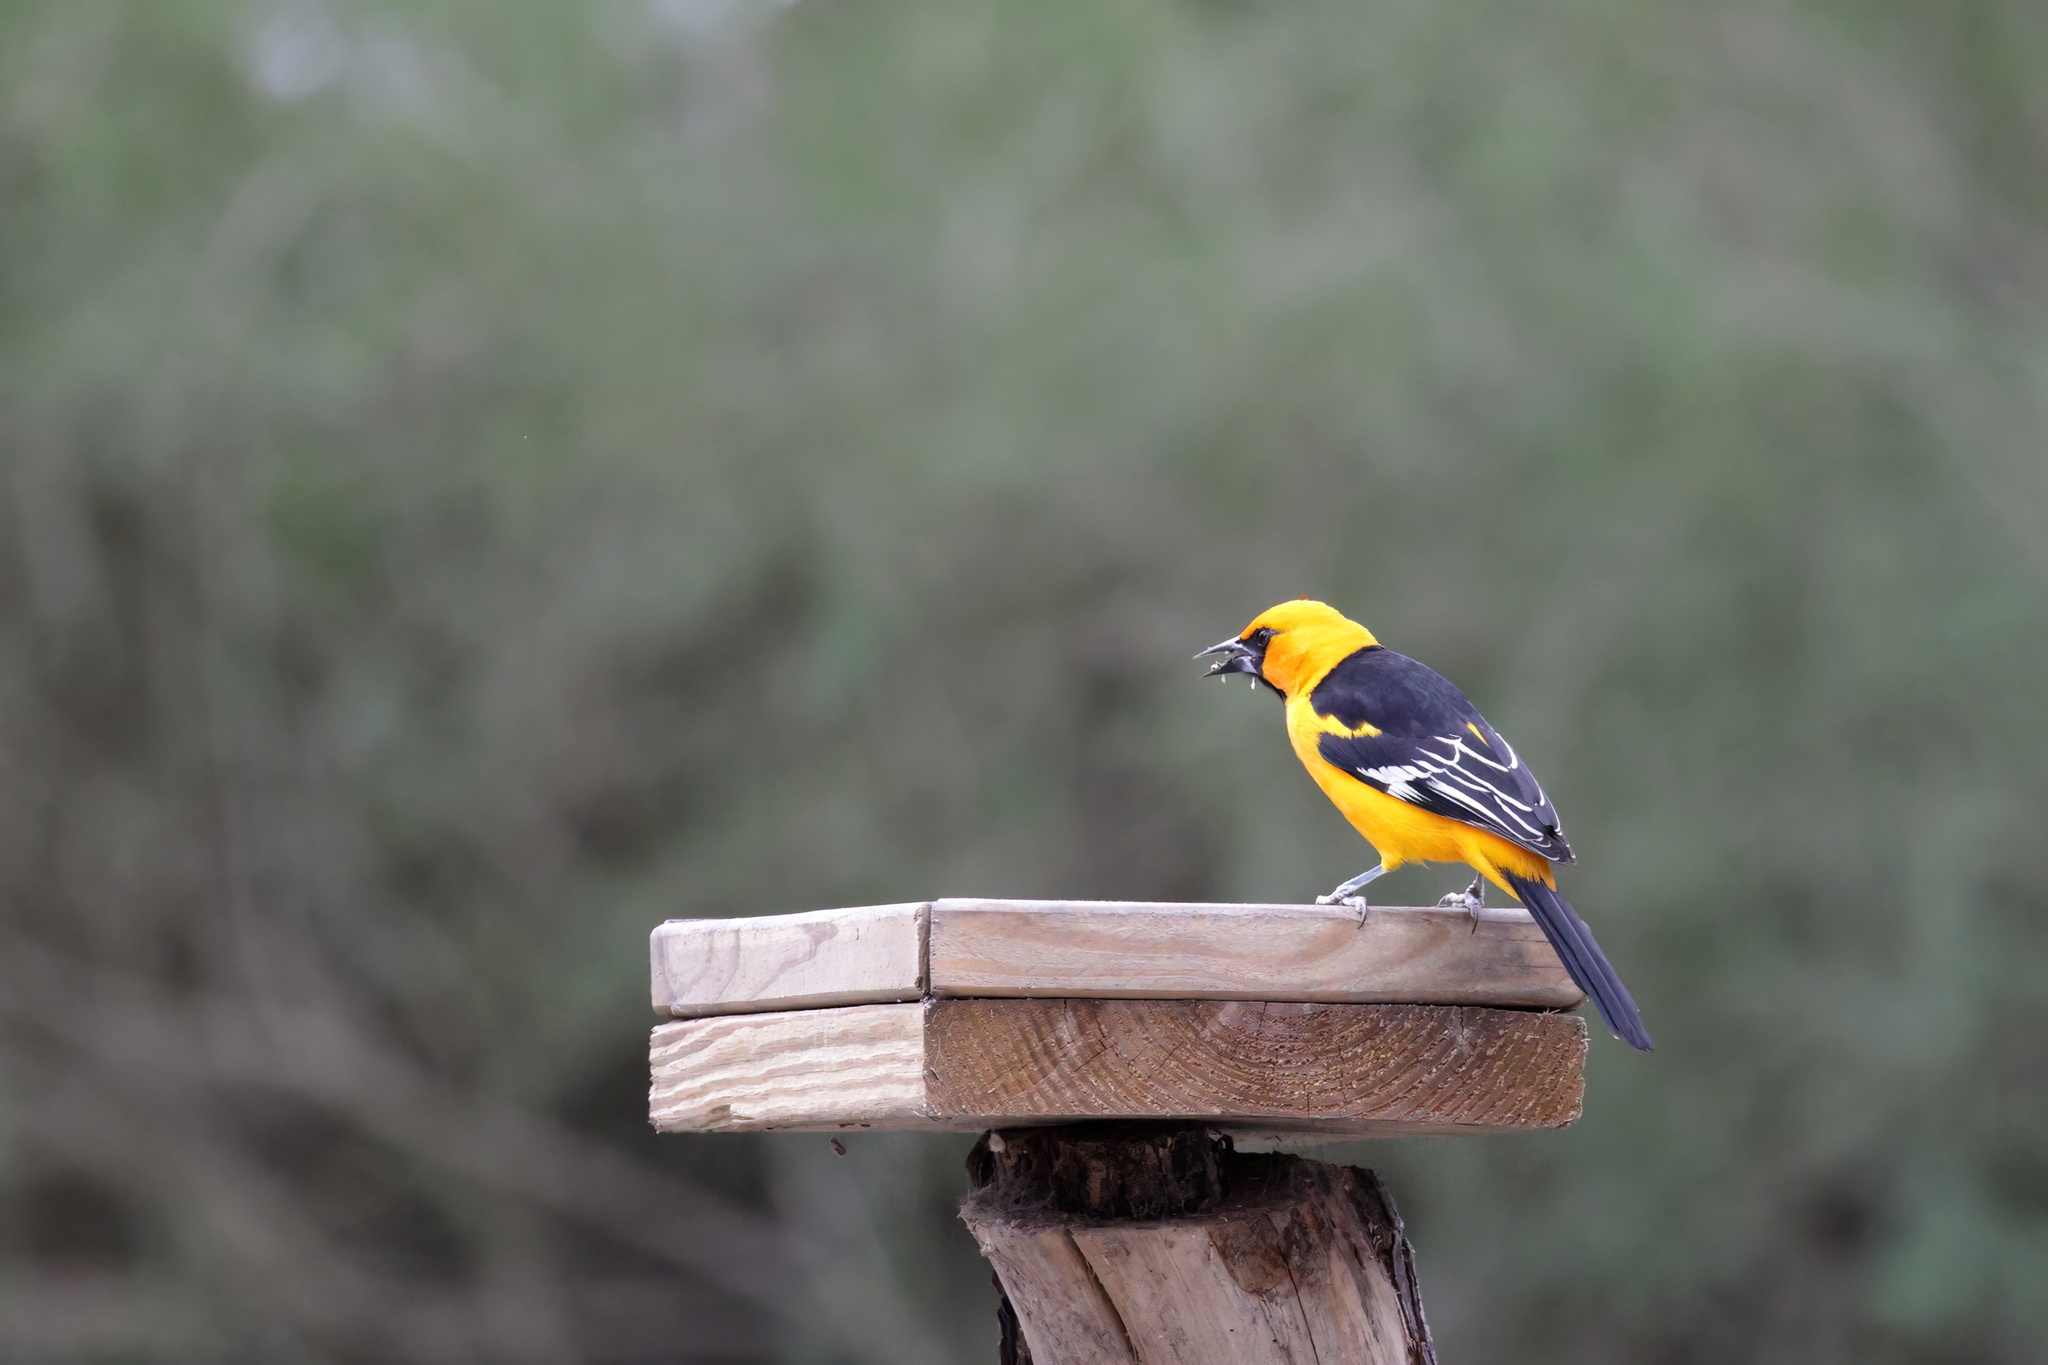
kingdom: Animalia
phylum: Chordata
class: Aves
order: Passeriformes
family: Icteridae
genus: Icterus
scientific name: Icterus gularis
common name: Altamira oriole
